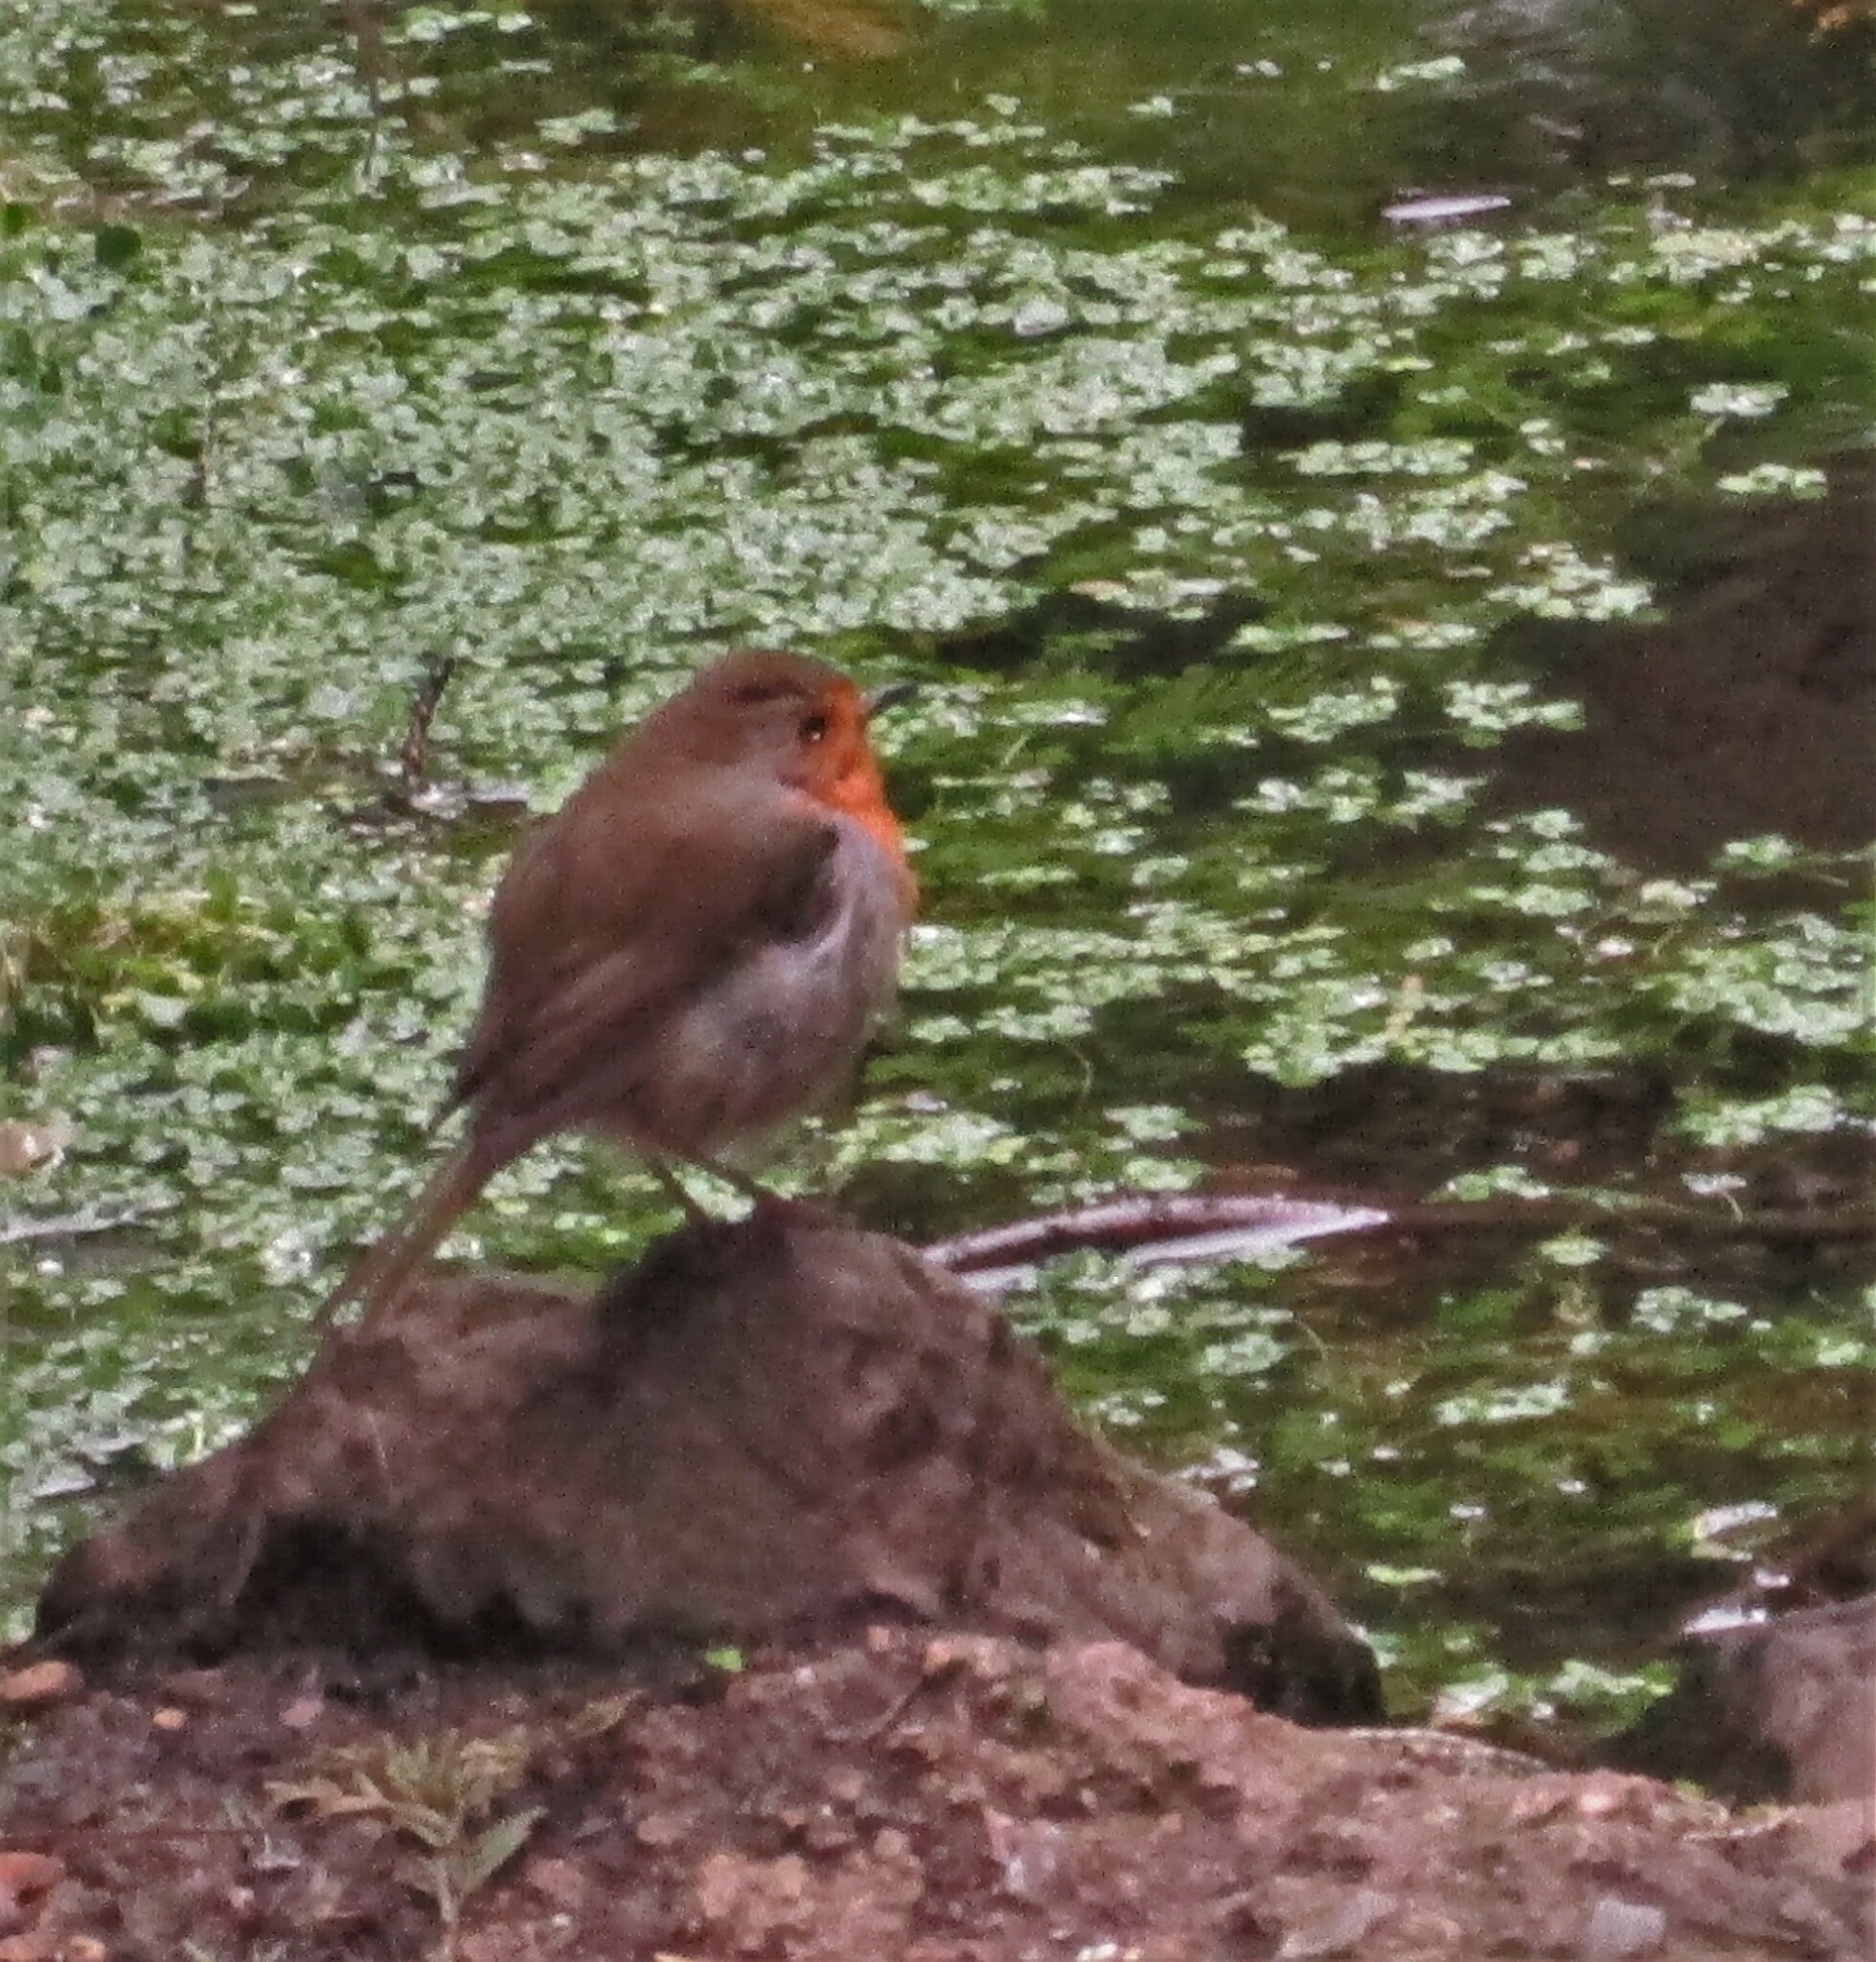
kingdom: Animalia
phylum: Chordata
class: Aves
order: Passeriformes
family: Muscicapidae
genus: Erithacus
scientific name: Erithacus rubecula
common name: European robin
